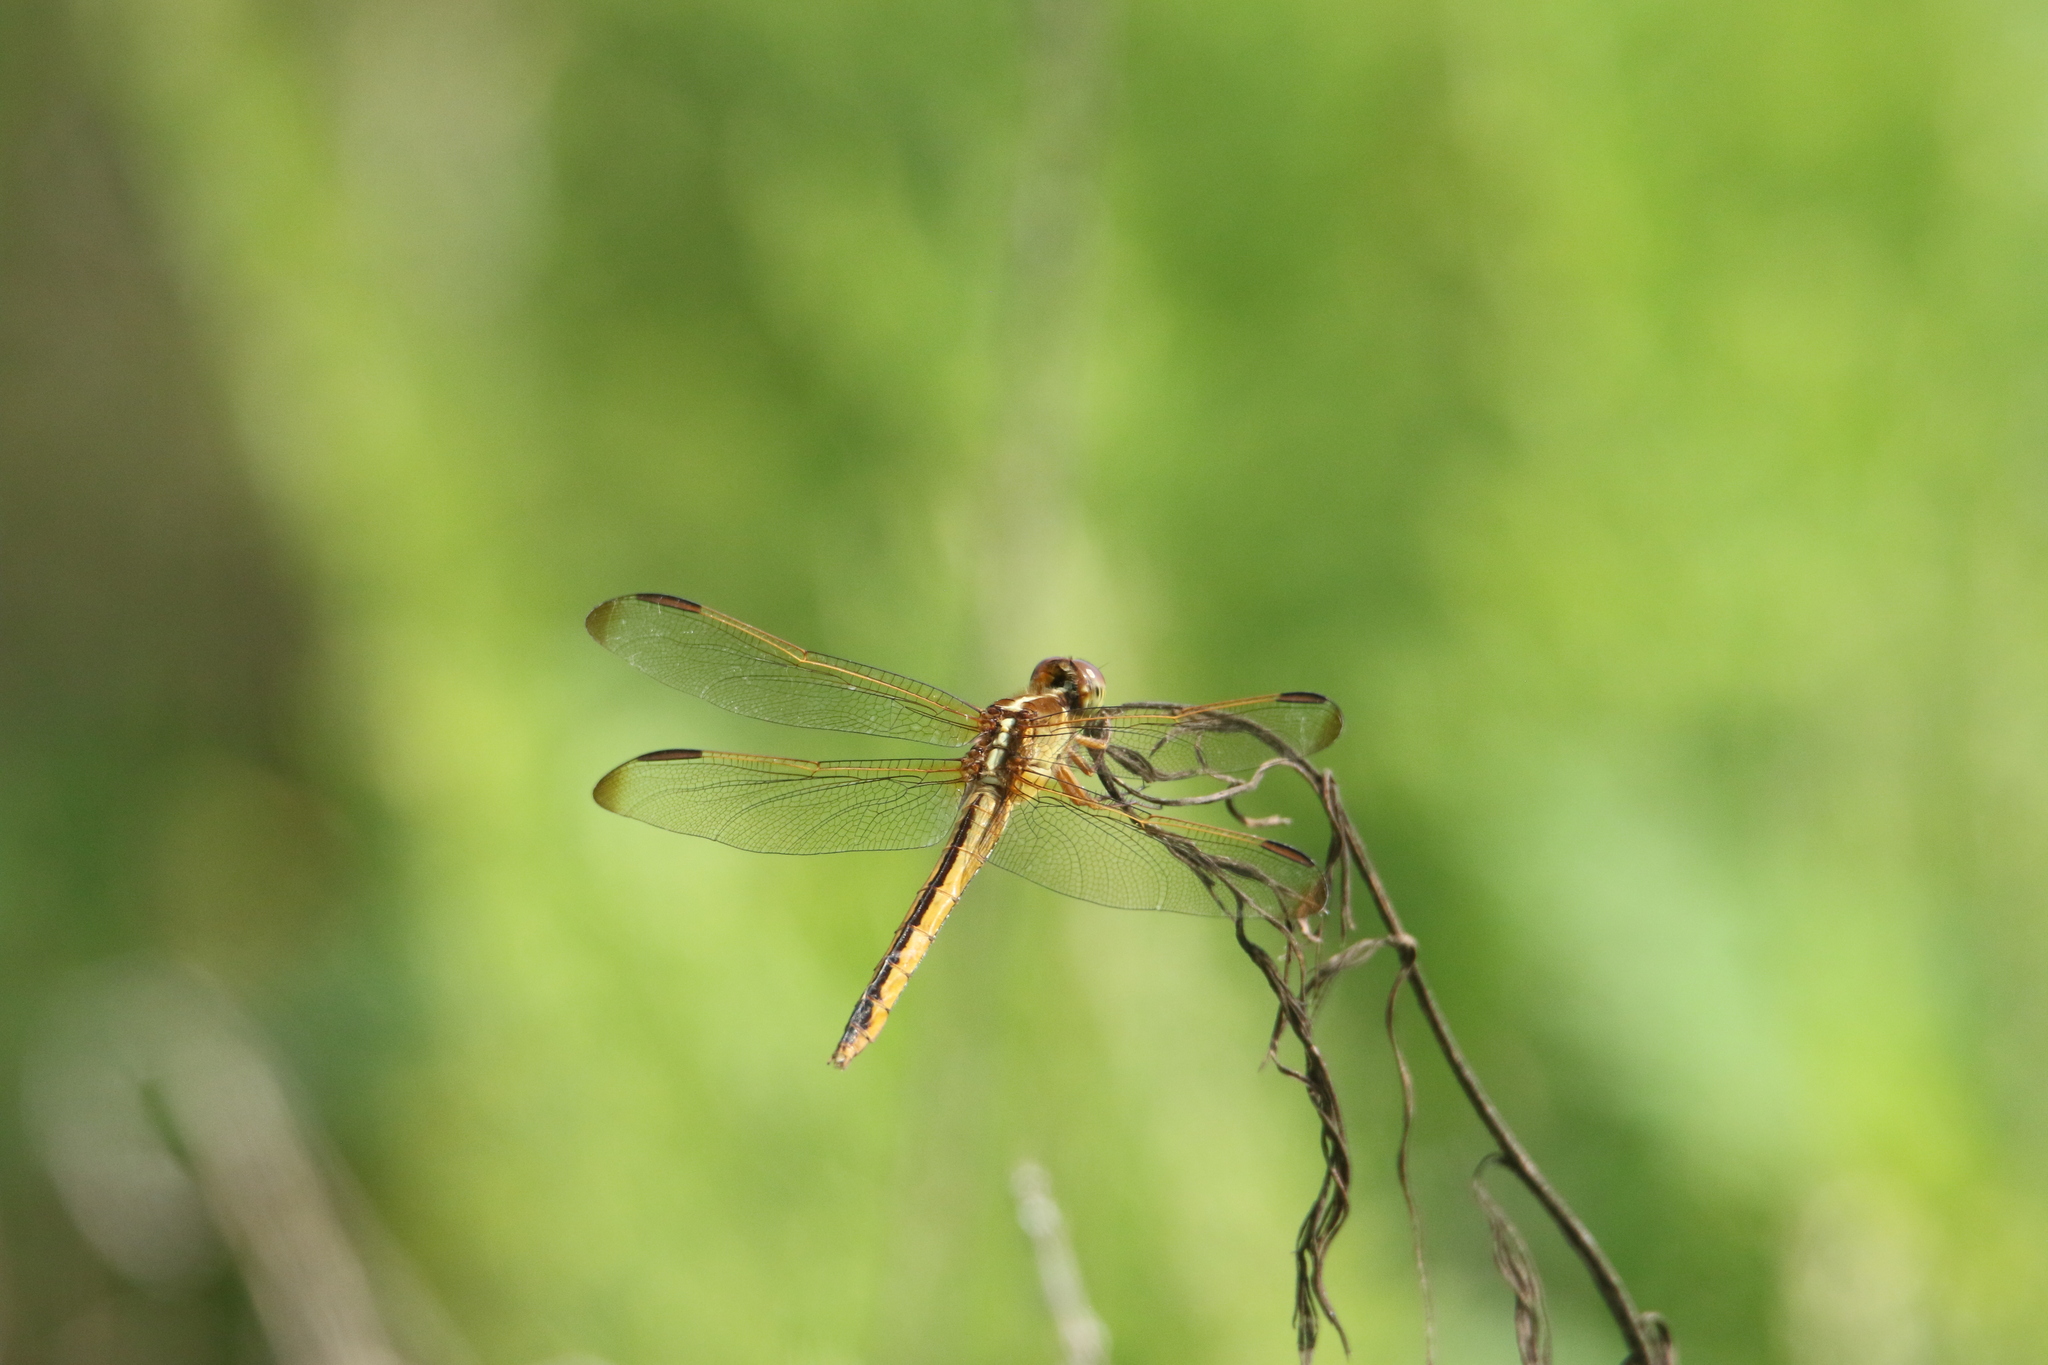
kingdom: Animalia
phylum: Arthropoda
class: Insecta
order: Odonata
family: Libellulidae
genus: Libellula
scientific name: Libellula needhami
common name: Needham's skimmer
